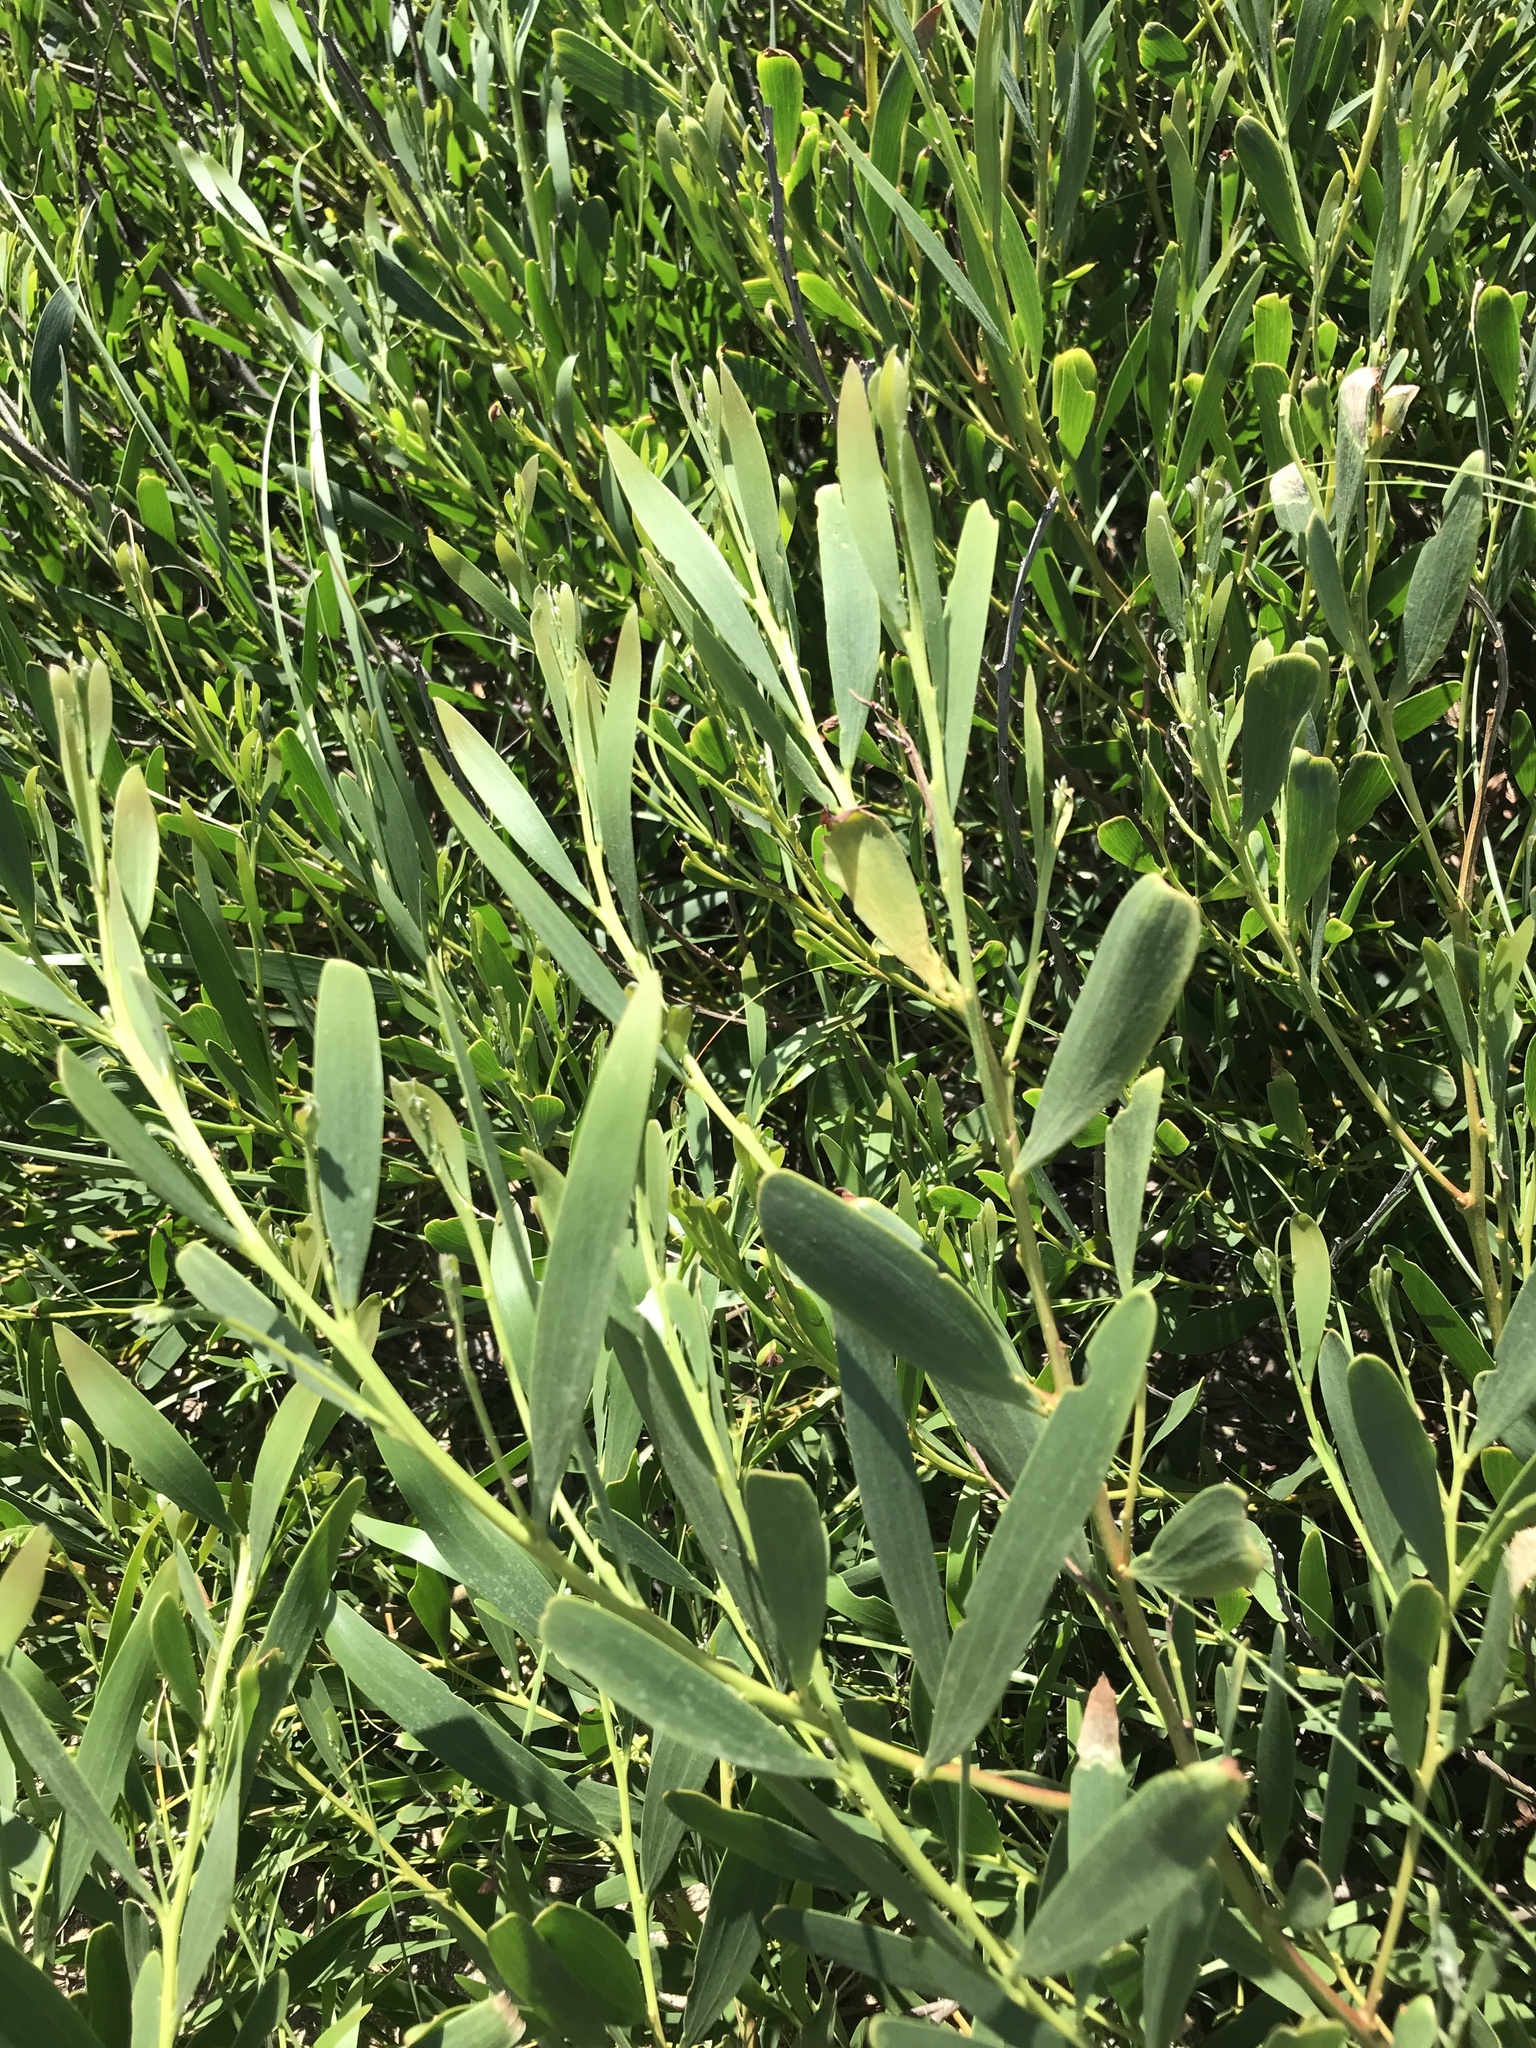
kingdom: Plantae
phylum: Tracheophyta
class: Magnoliopsida
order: Fabales
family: Fabaceae
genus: Acacia
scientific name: Acacia longifolia
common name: Sydney golden wattle
